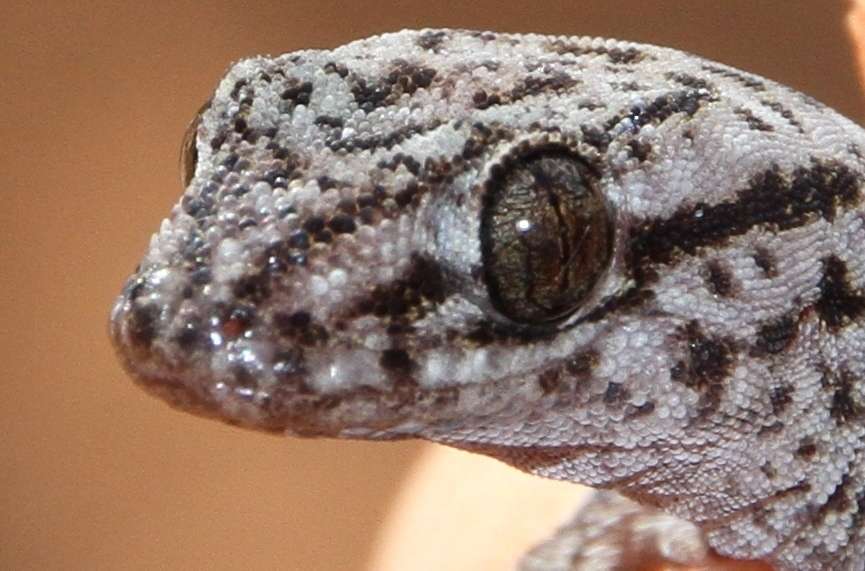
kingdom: Animalia
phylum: Chordata
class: Squamata
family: Gekkonidae
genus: Gehyra
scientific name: Gehyra versicolor
